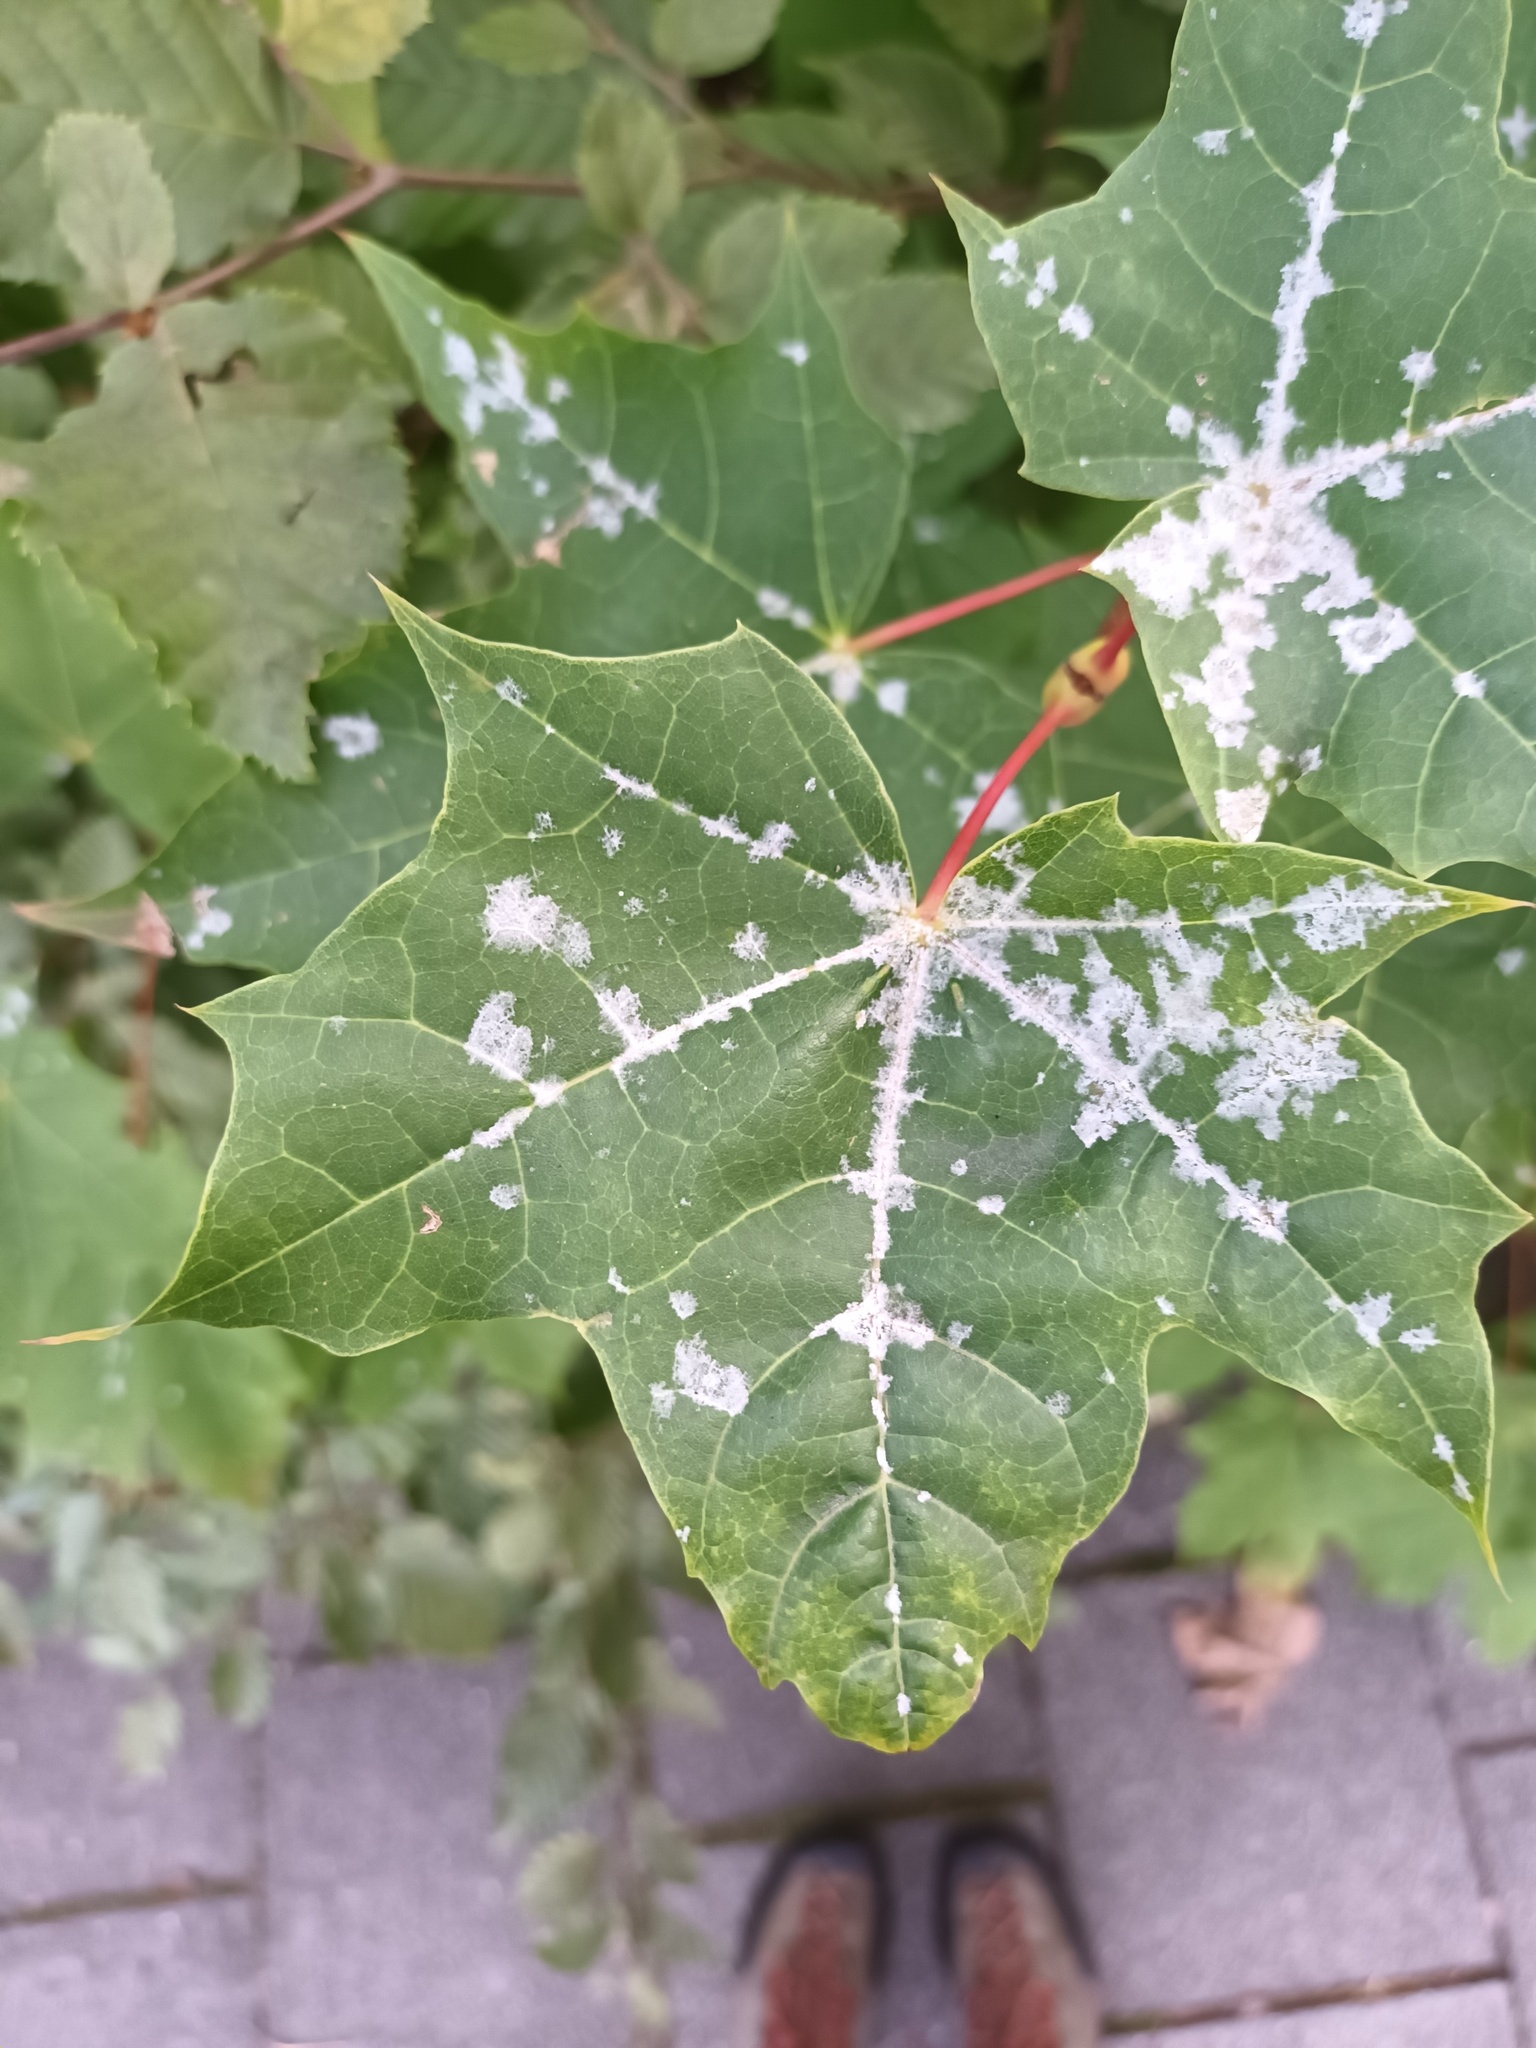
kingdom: Fungi
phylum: Ascomycota
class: Leotiomycetes
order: Helotiales
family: Erysiphaceae
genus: Sawadaea
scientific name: Sawadaea tulasnei
